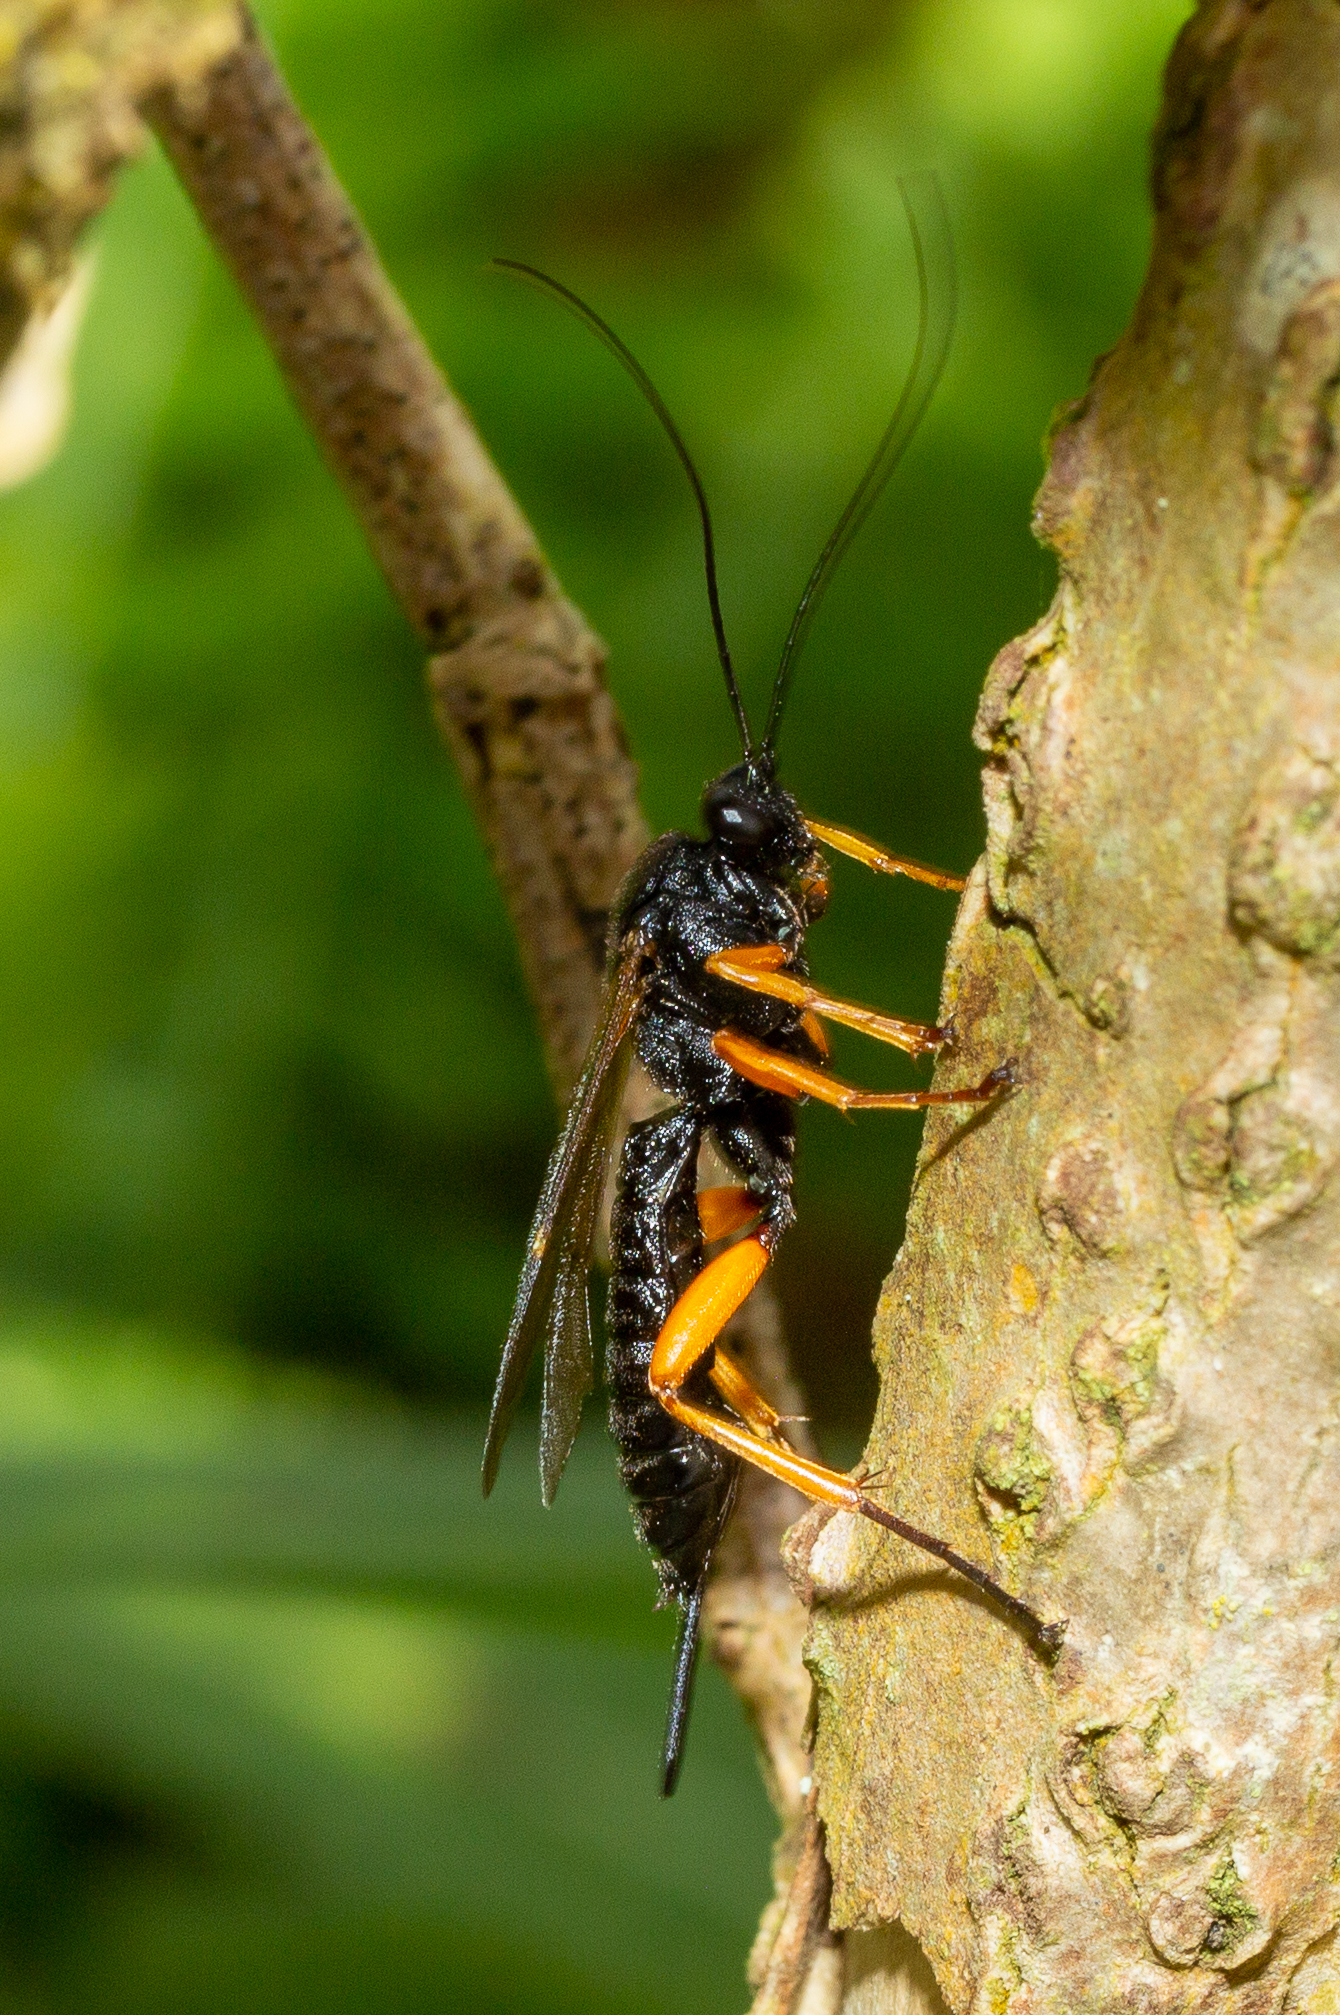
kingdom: Animalia
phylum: Arthropoda
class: Insecta
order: Hymenoptera
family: Ichneumonidae
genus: Pimpla
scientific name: Pimpla rufipes
